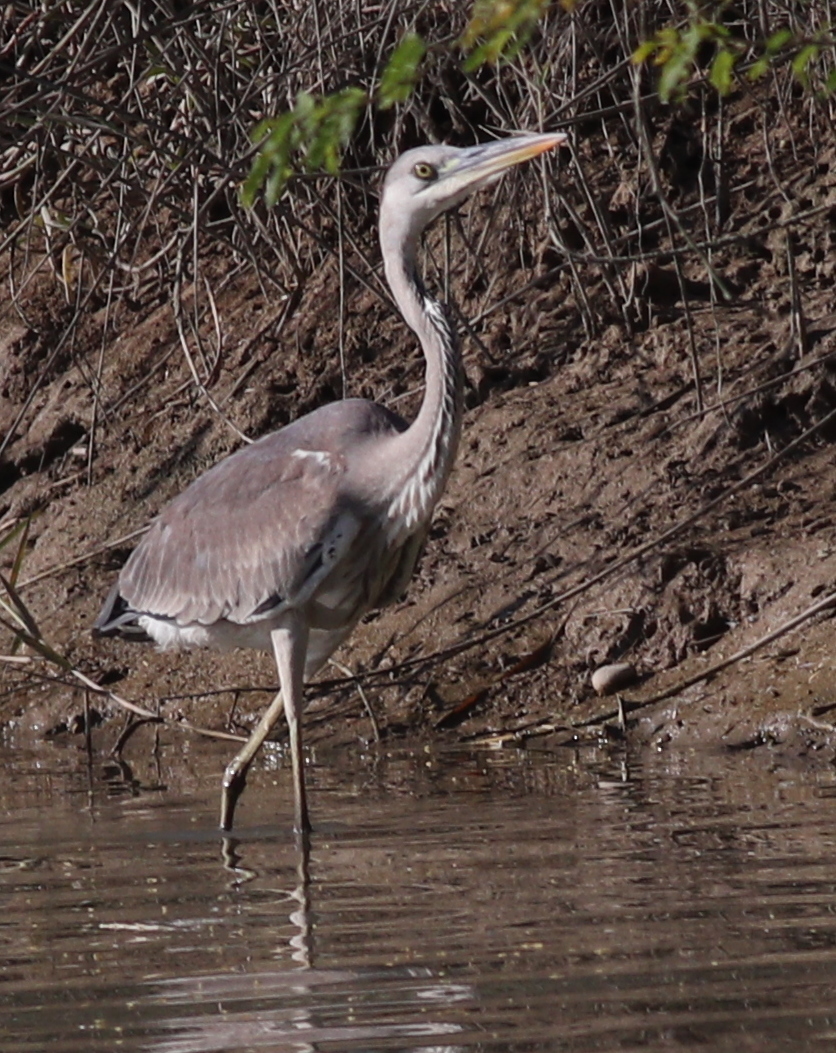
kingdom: Animalia
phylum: Chordata
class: Aves
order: Pelecaniformes
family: Ardeidae
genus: Ardea
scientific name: Ardea cinerea
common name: Grey heron
